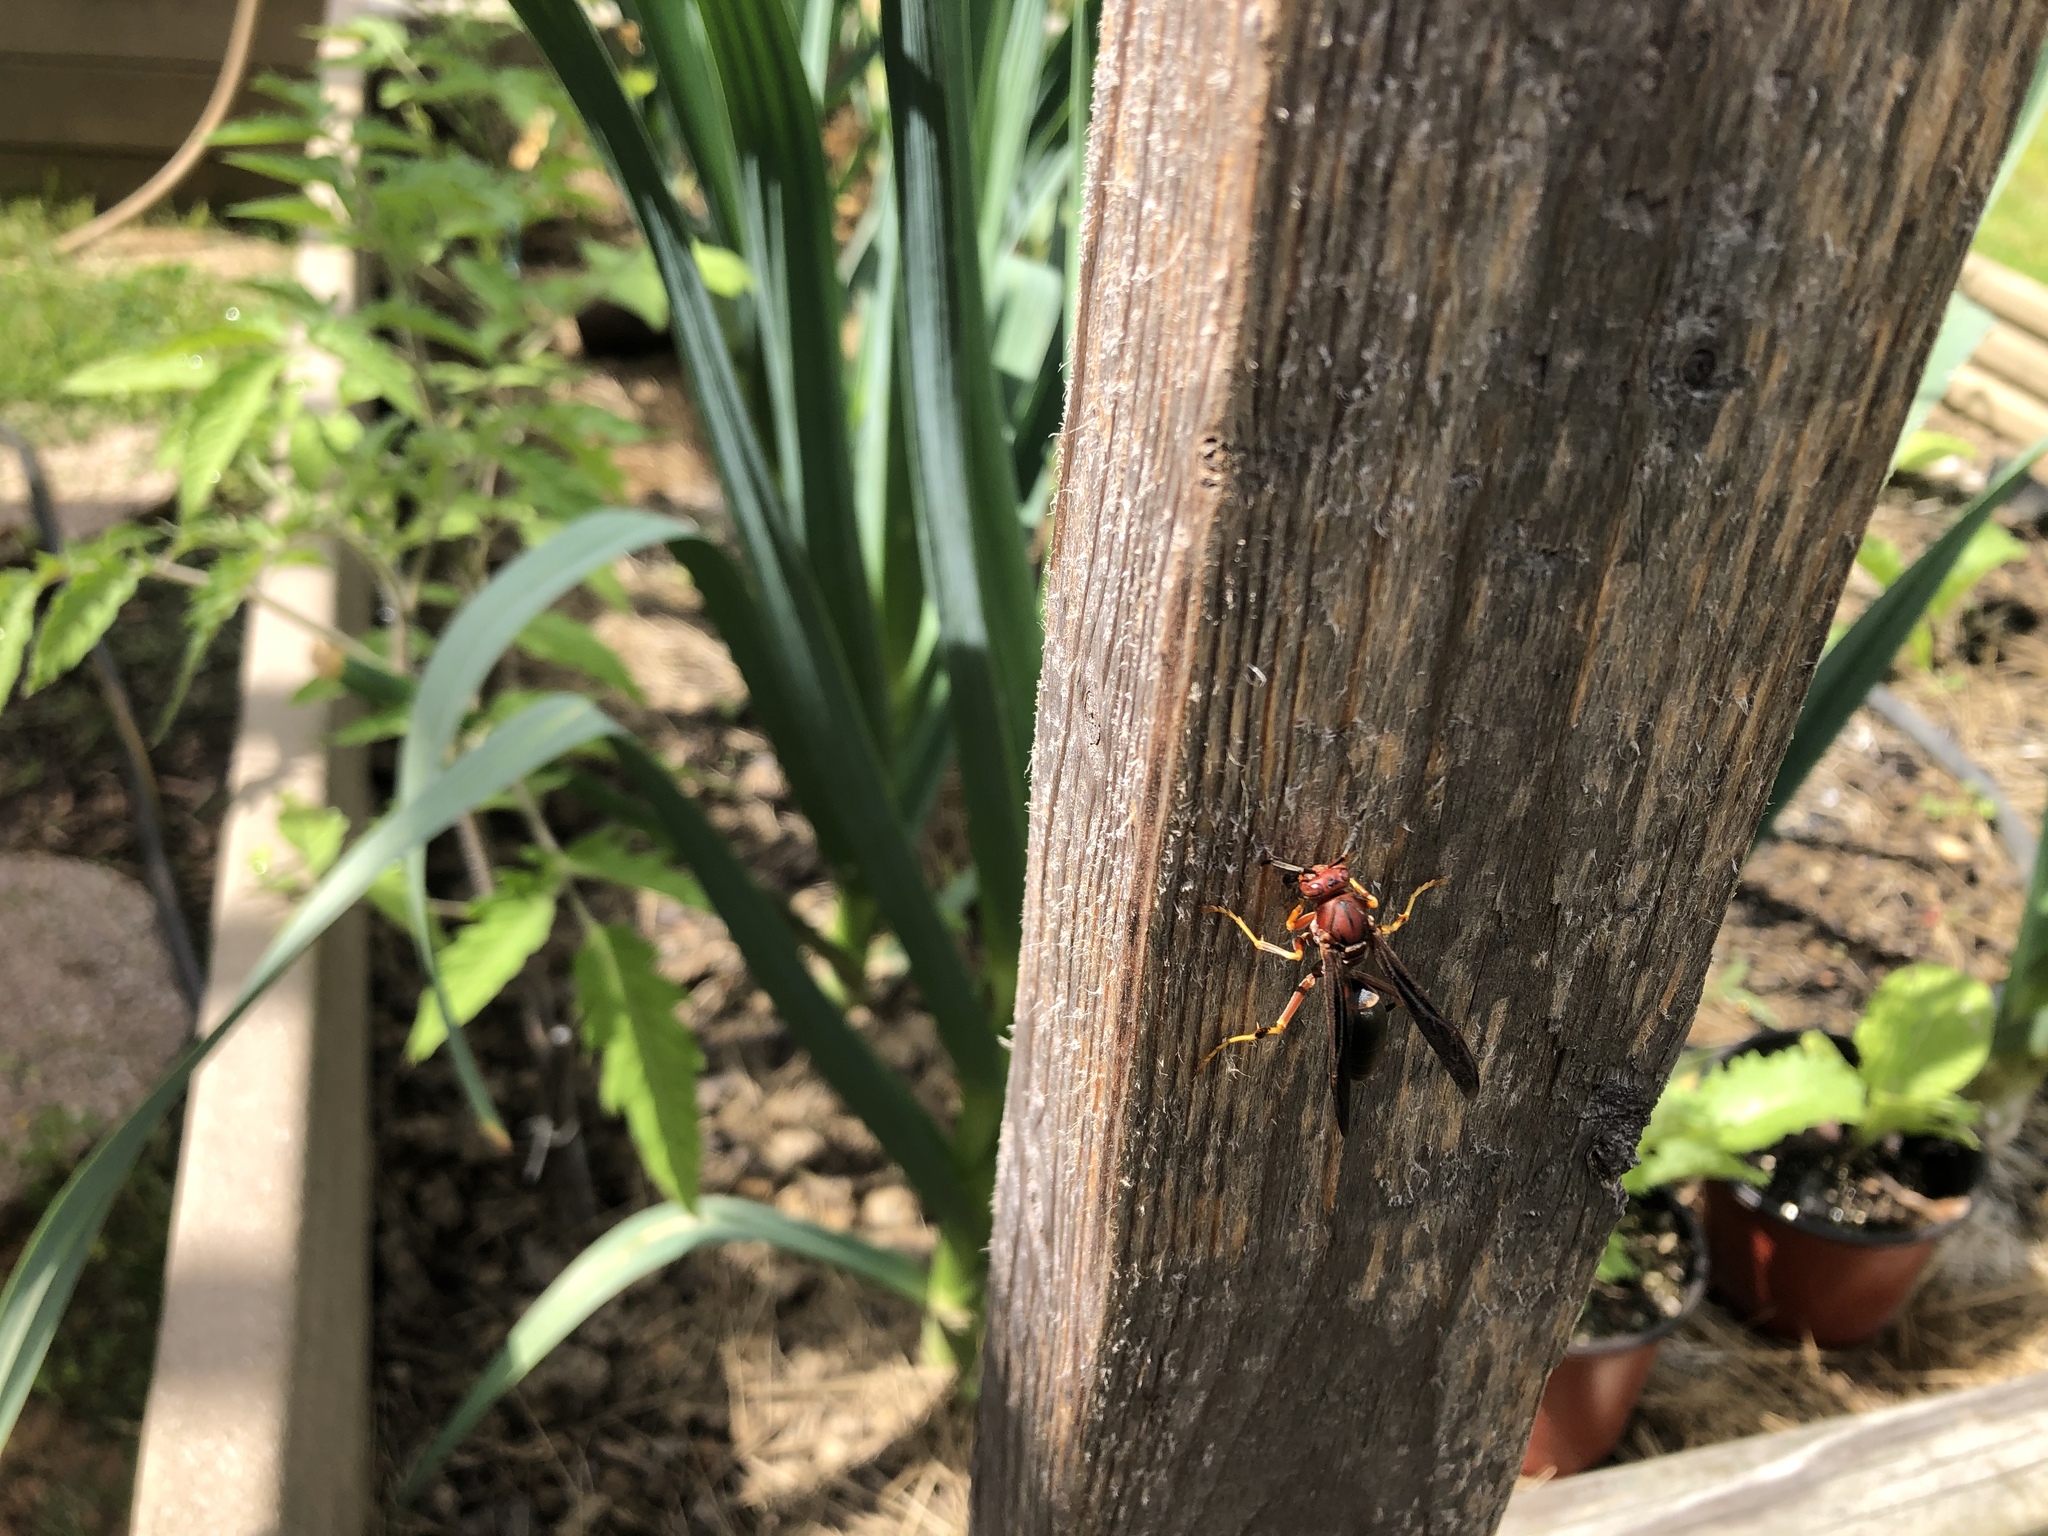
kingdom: Animalia
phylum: Arthropoda
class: Insecta
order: Hymenoptera
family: Eumenidae
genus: Polistes
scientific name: Polistes metricus
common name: Metric paper wasp
